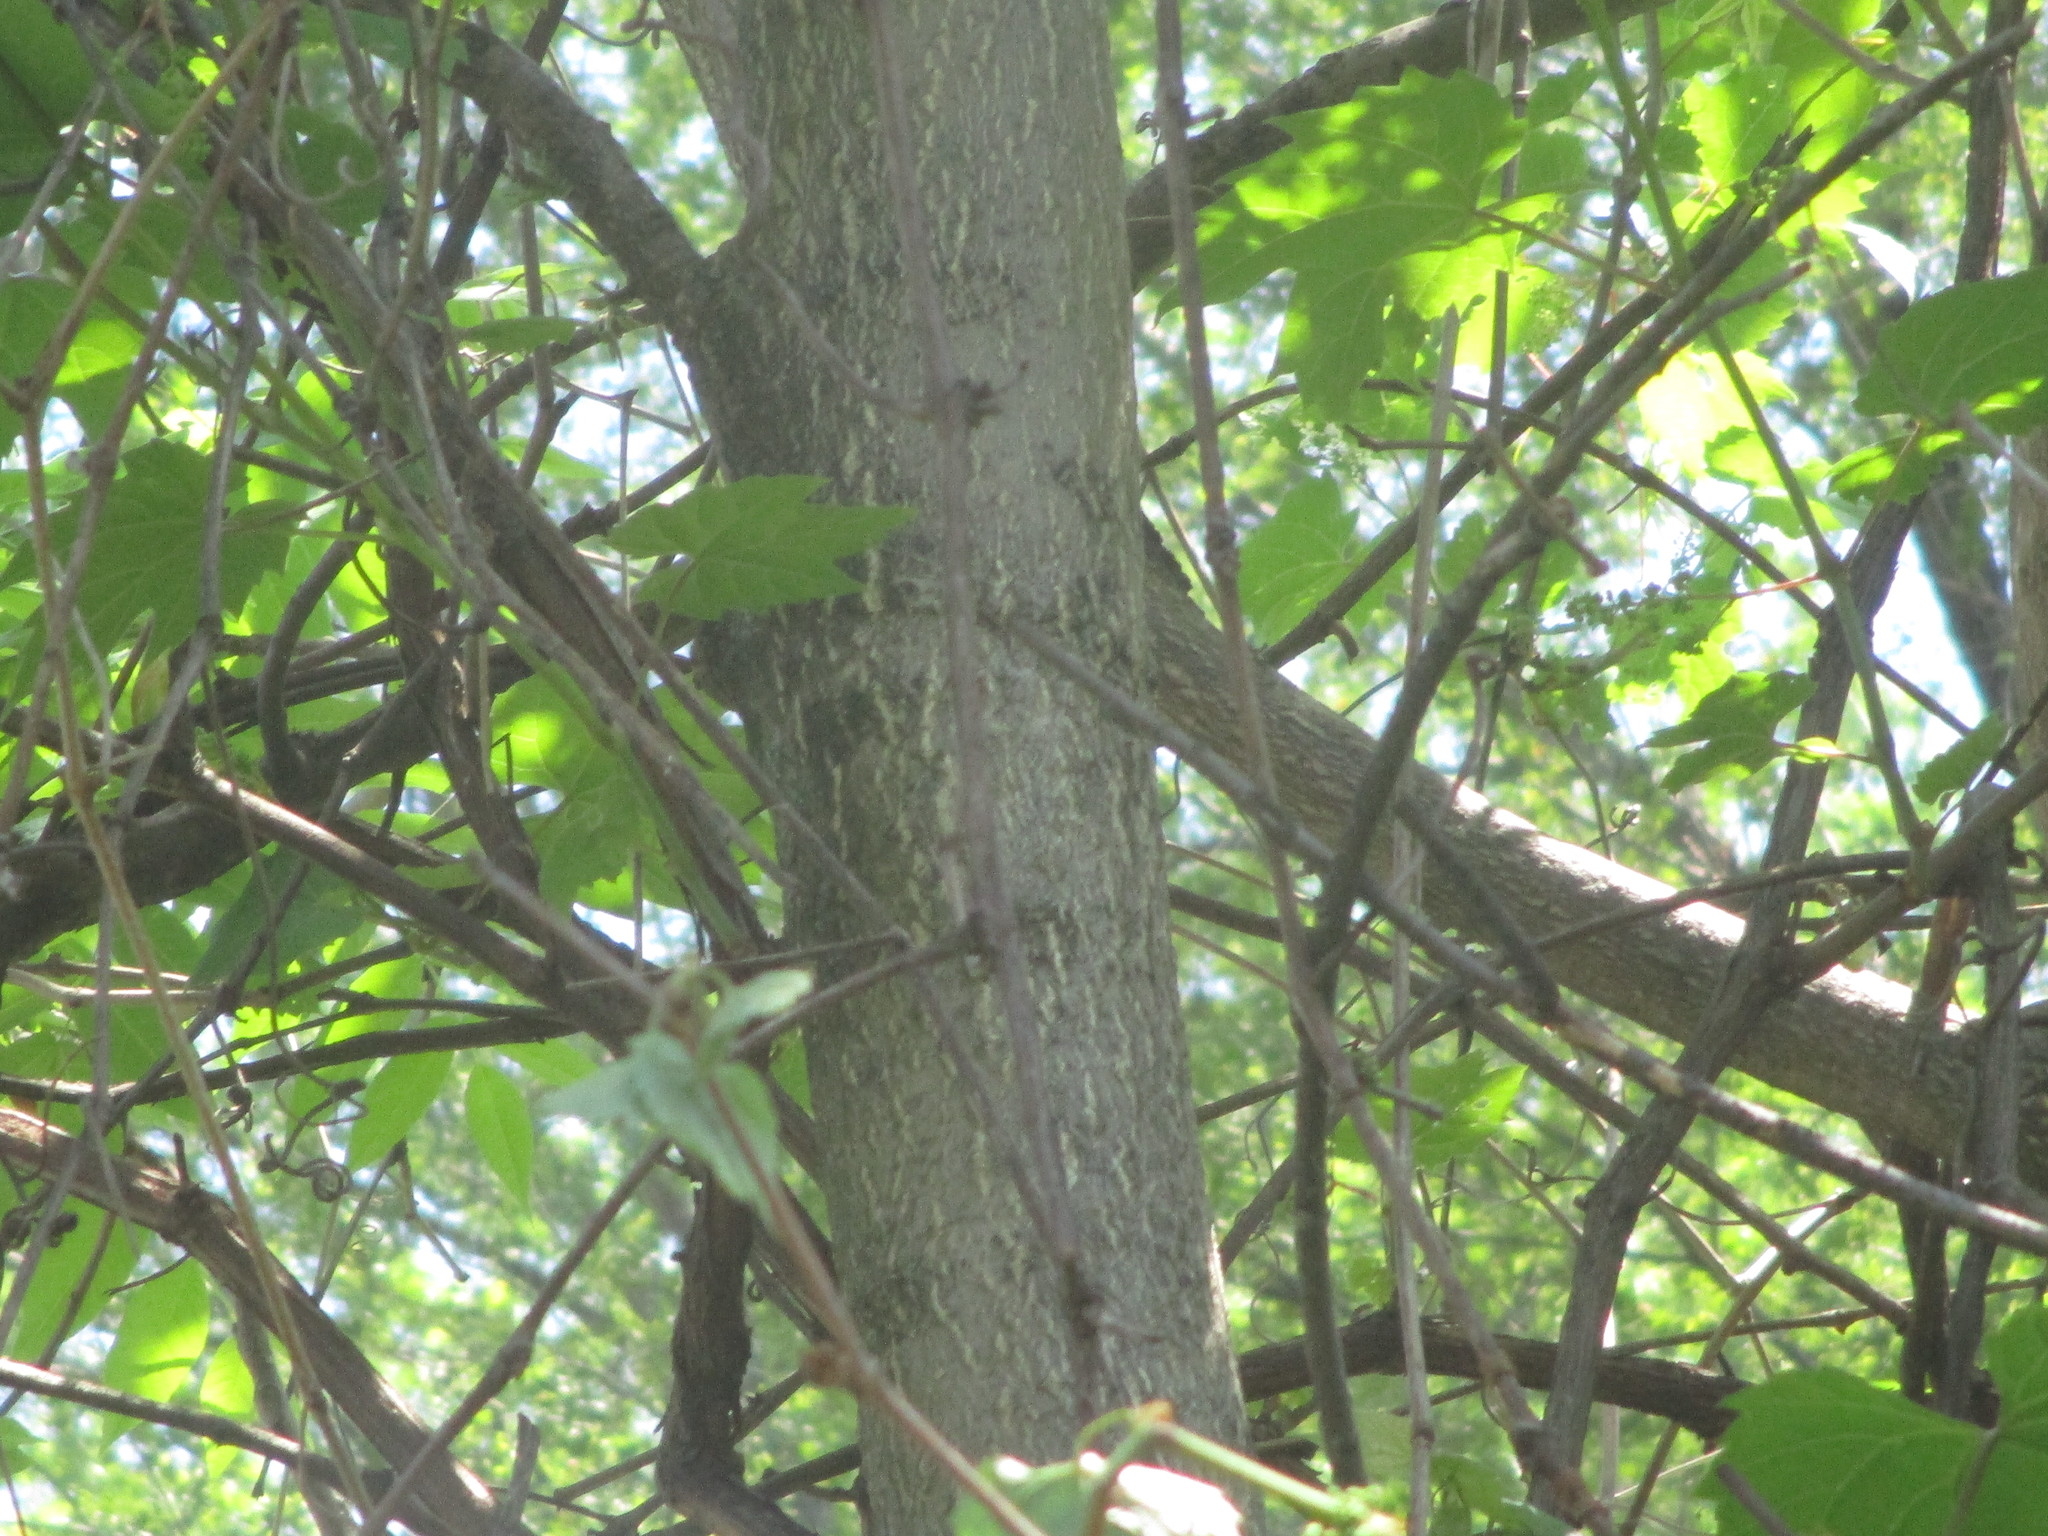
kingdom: Plantae
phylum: Tracheophyta
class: Magnoliopsida
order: Sapindales
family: Simaroubaceae
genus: Ailanthus
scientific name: Ailanthus altissima
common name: Tree-of-heaven
